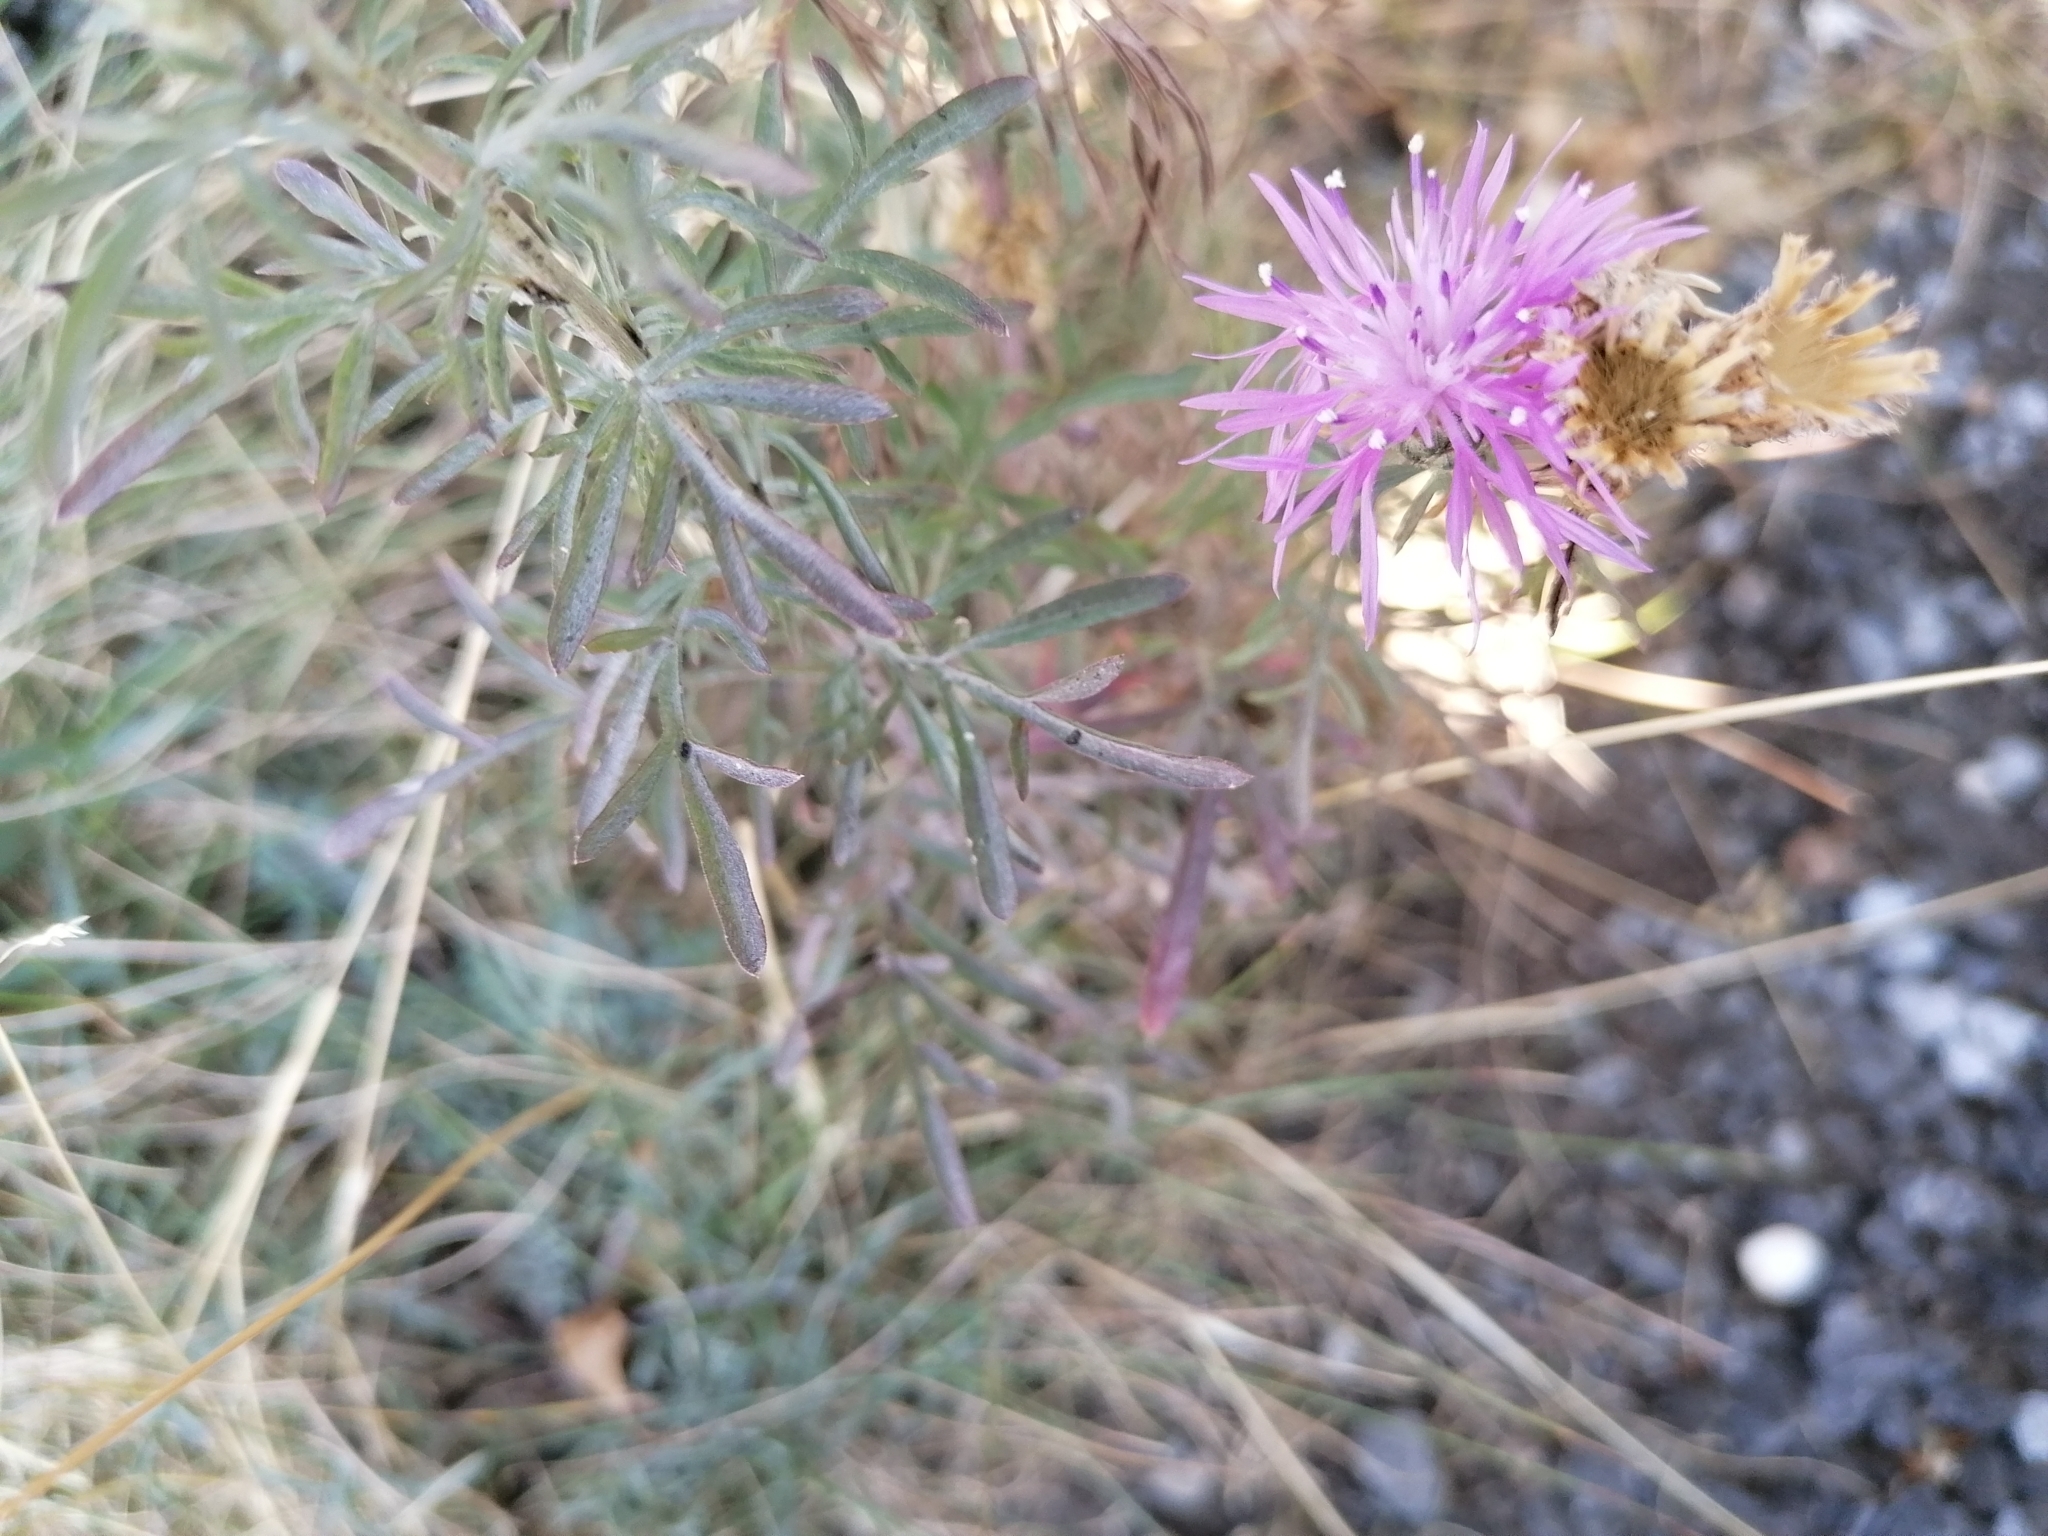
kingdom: Plantae
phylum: Tracheophyta
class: Magnoliopsida
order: Asterales
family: Asteraceae
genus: Centaurea
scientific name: Centaurea stoebe
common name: Spotted knapweed
